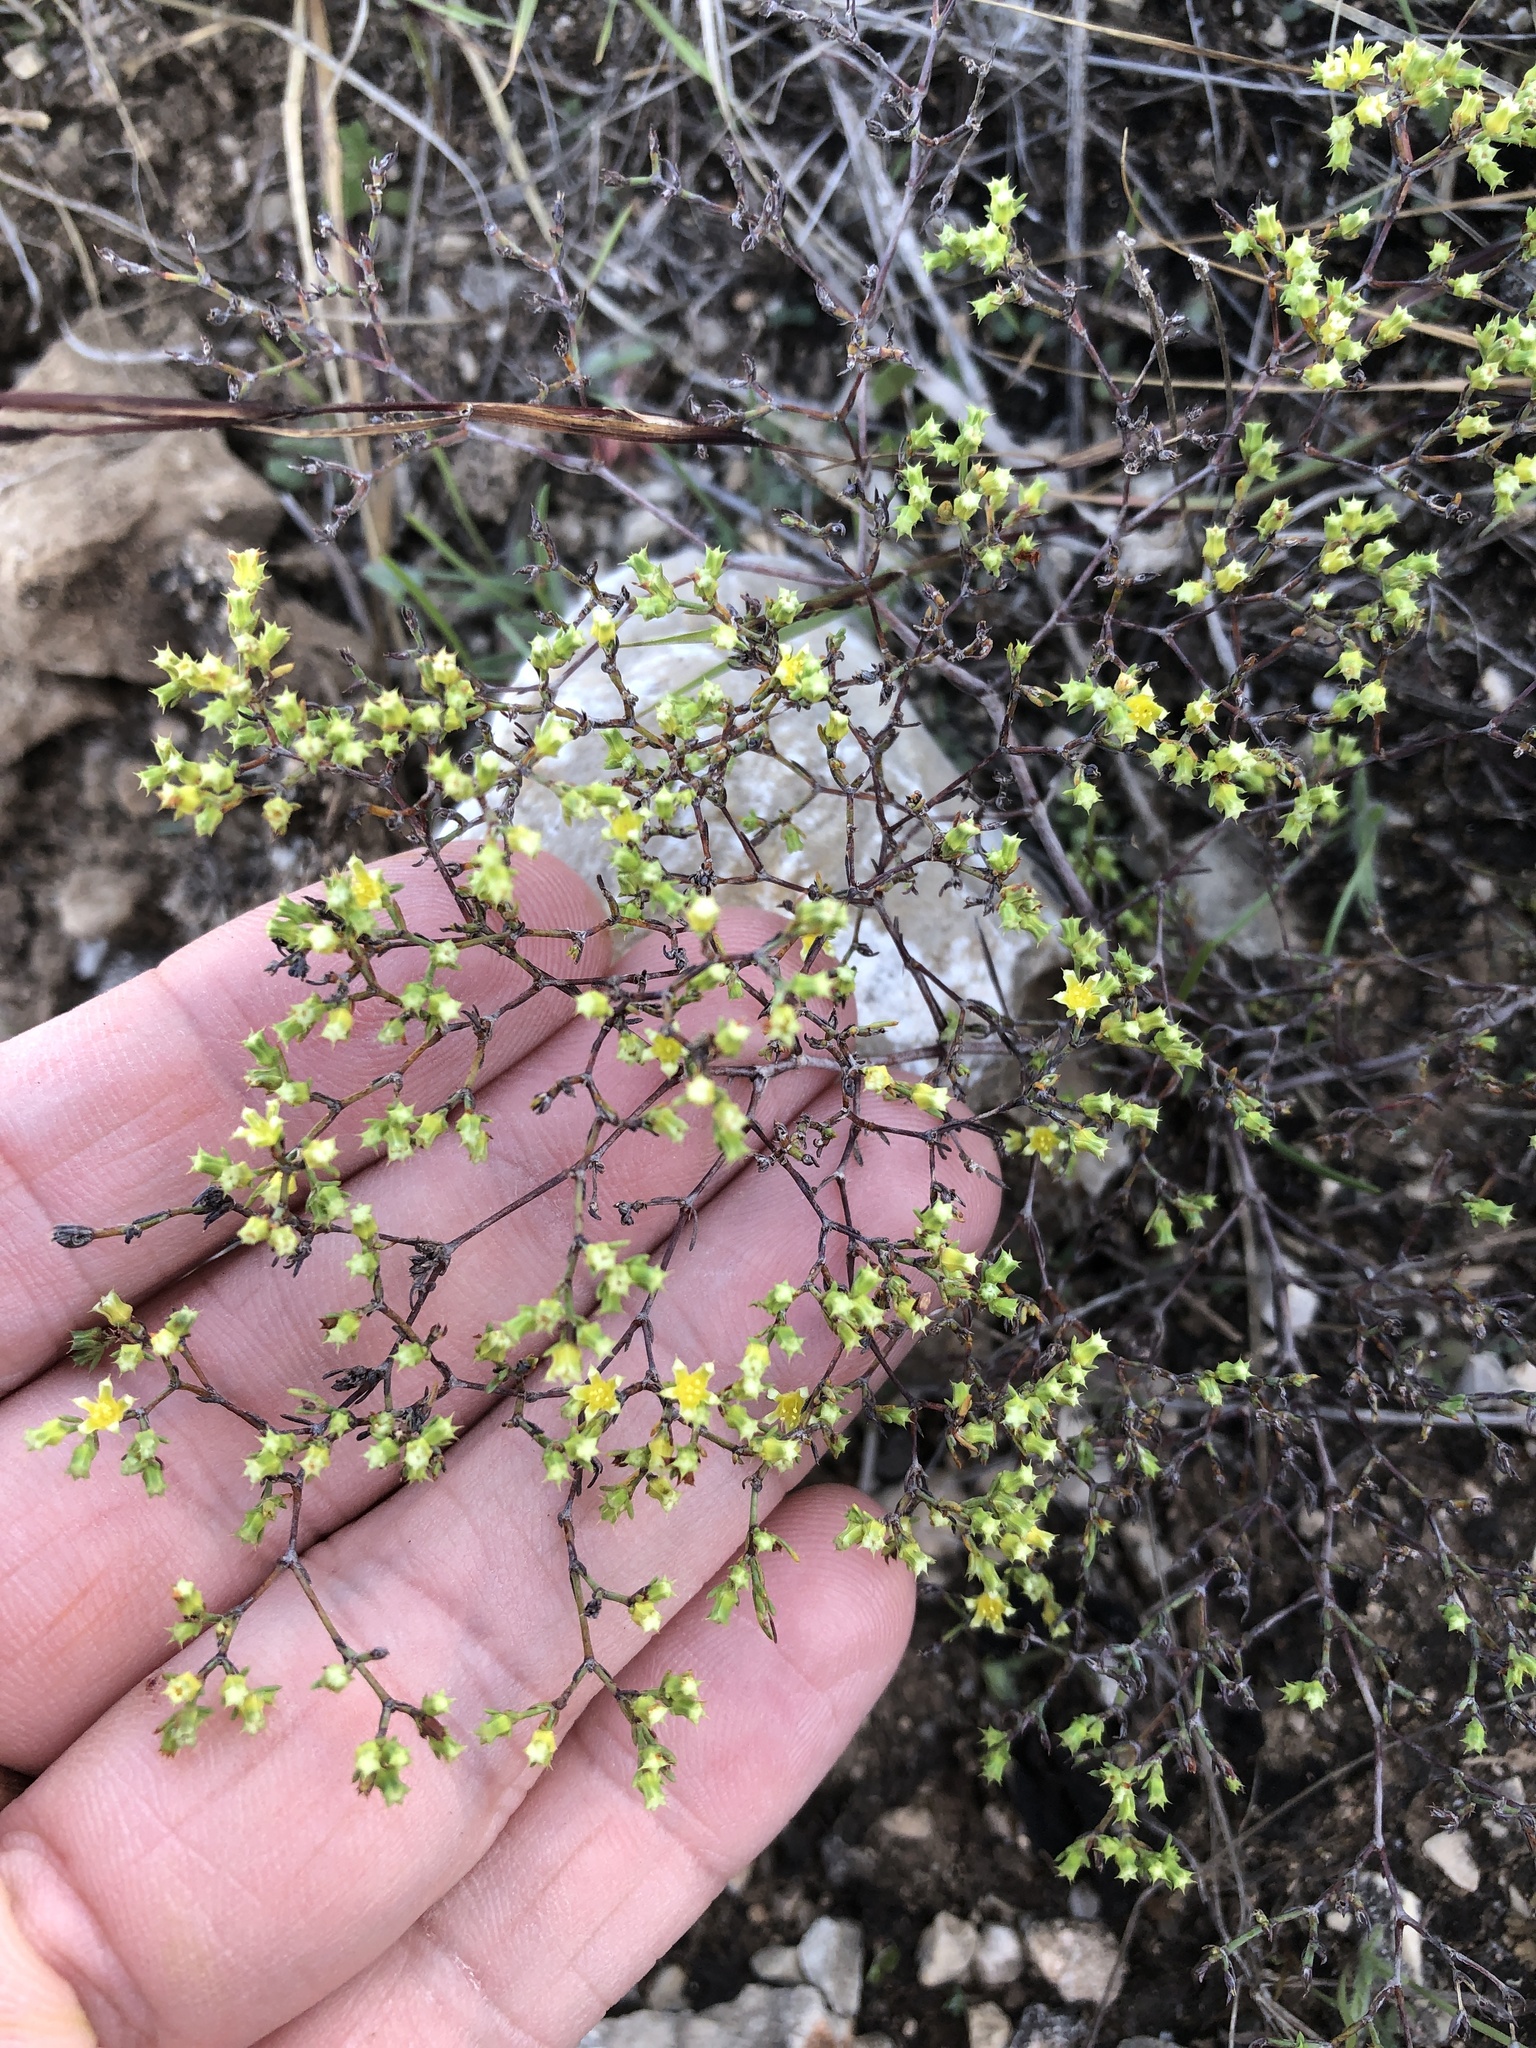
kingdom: Plantae
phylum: Tracheophyta
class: Magnoliopsida
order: Caryophyllales
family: Caryophyllaceae
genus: Paronychia
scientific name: Paronychia lindheimeri
